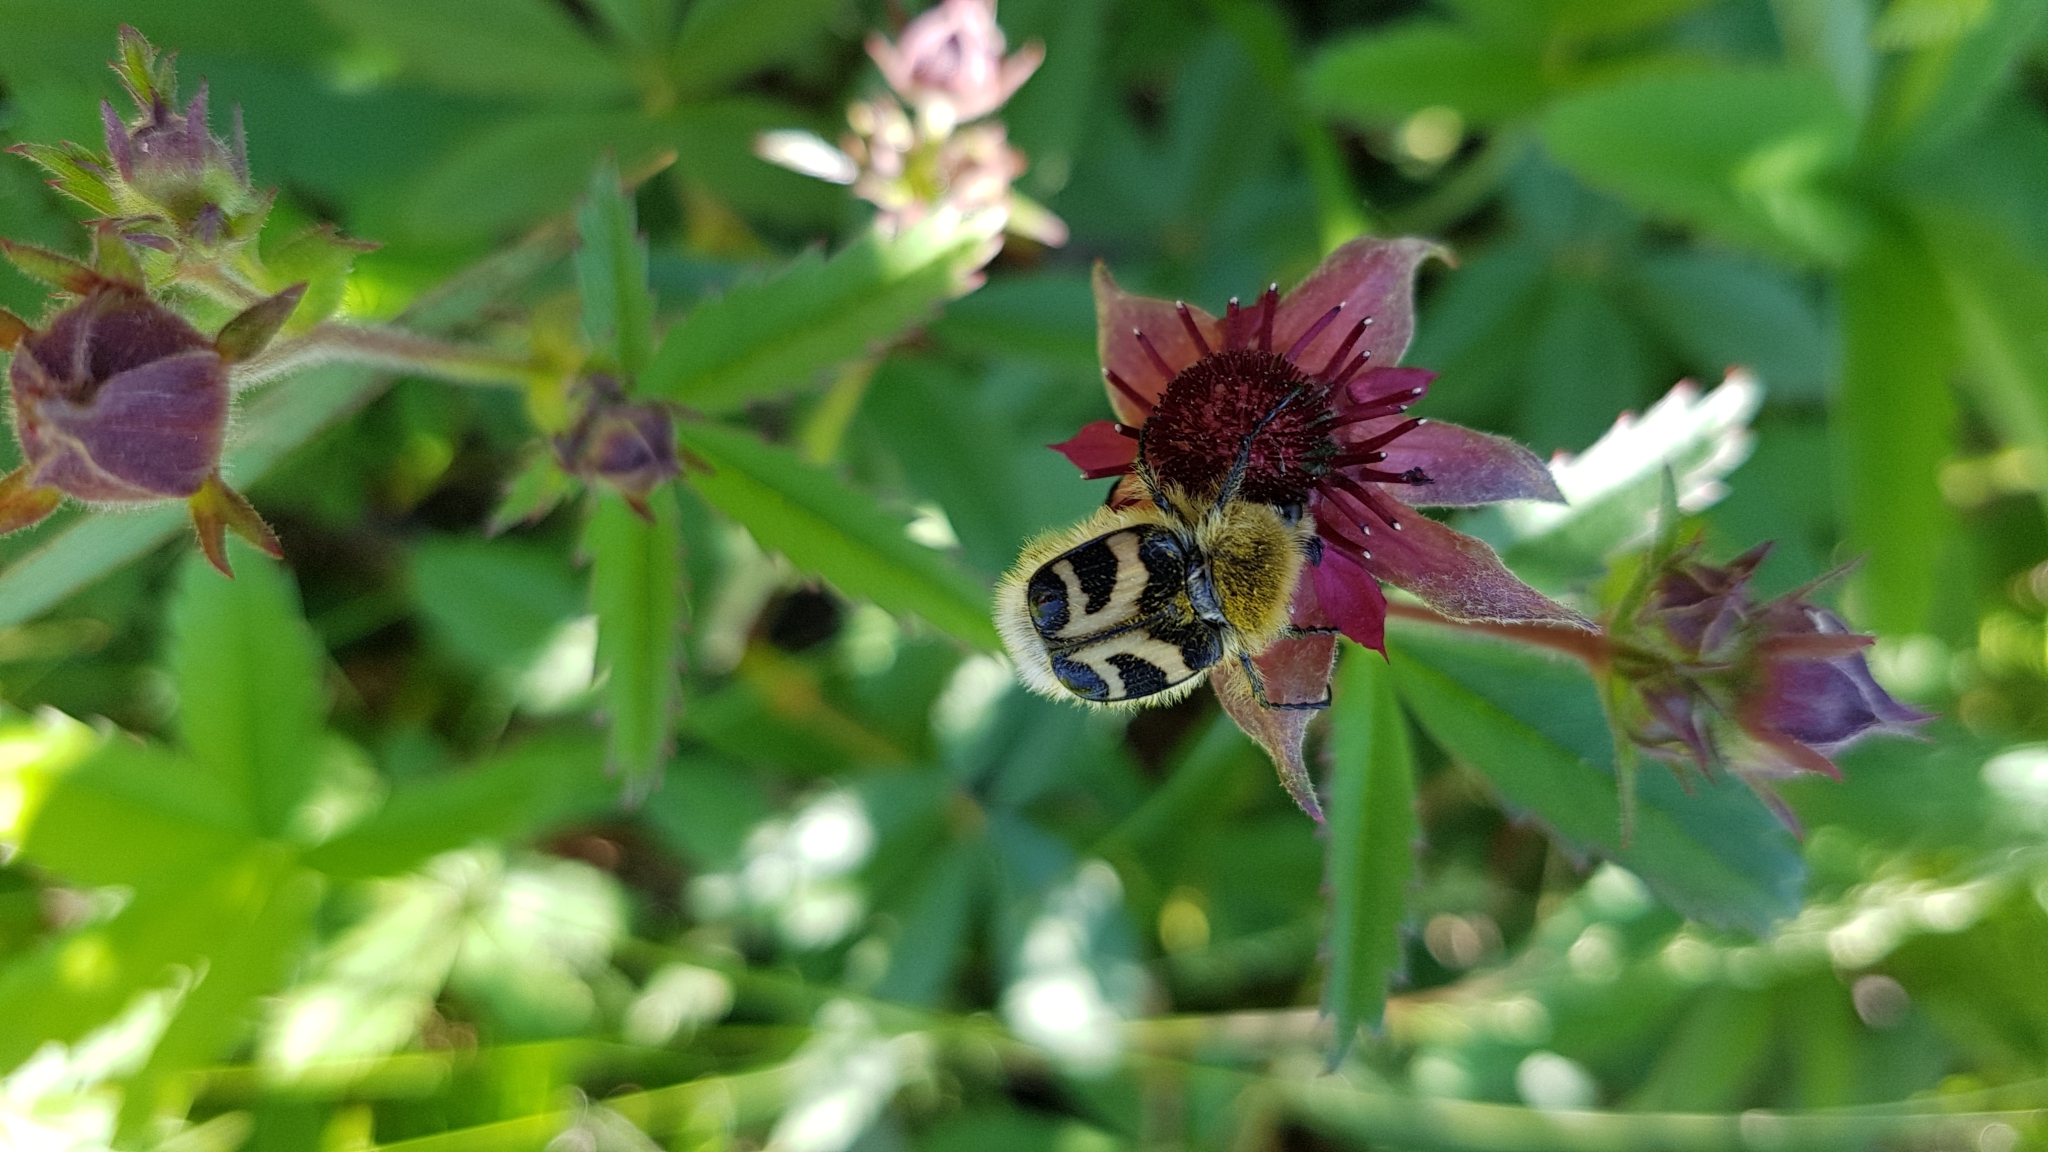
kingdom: Animalia
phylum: Arthropoda
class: Insecta
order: Coleoptera
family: Scarabaeidae
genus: Trichius
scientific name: Trichius fasciatus
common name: Bee beetle
